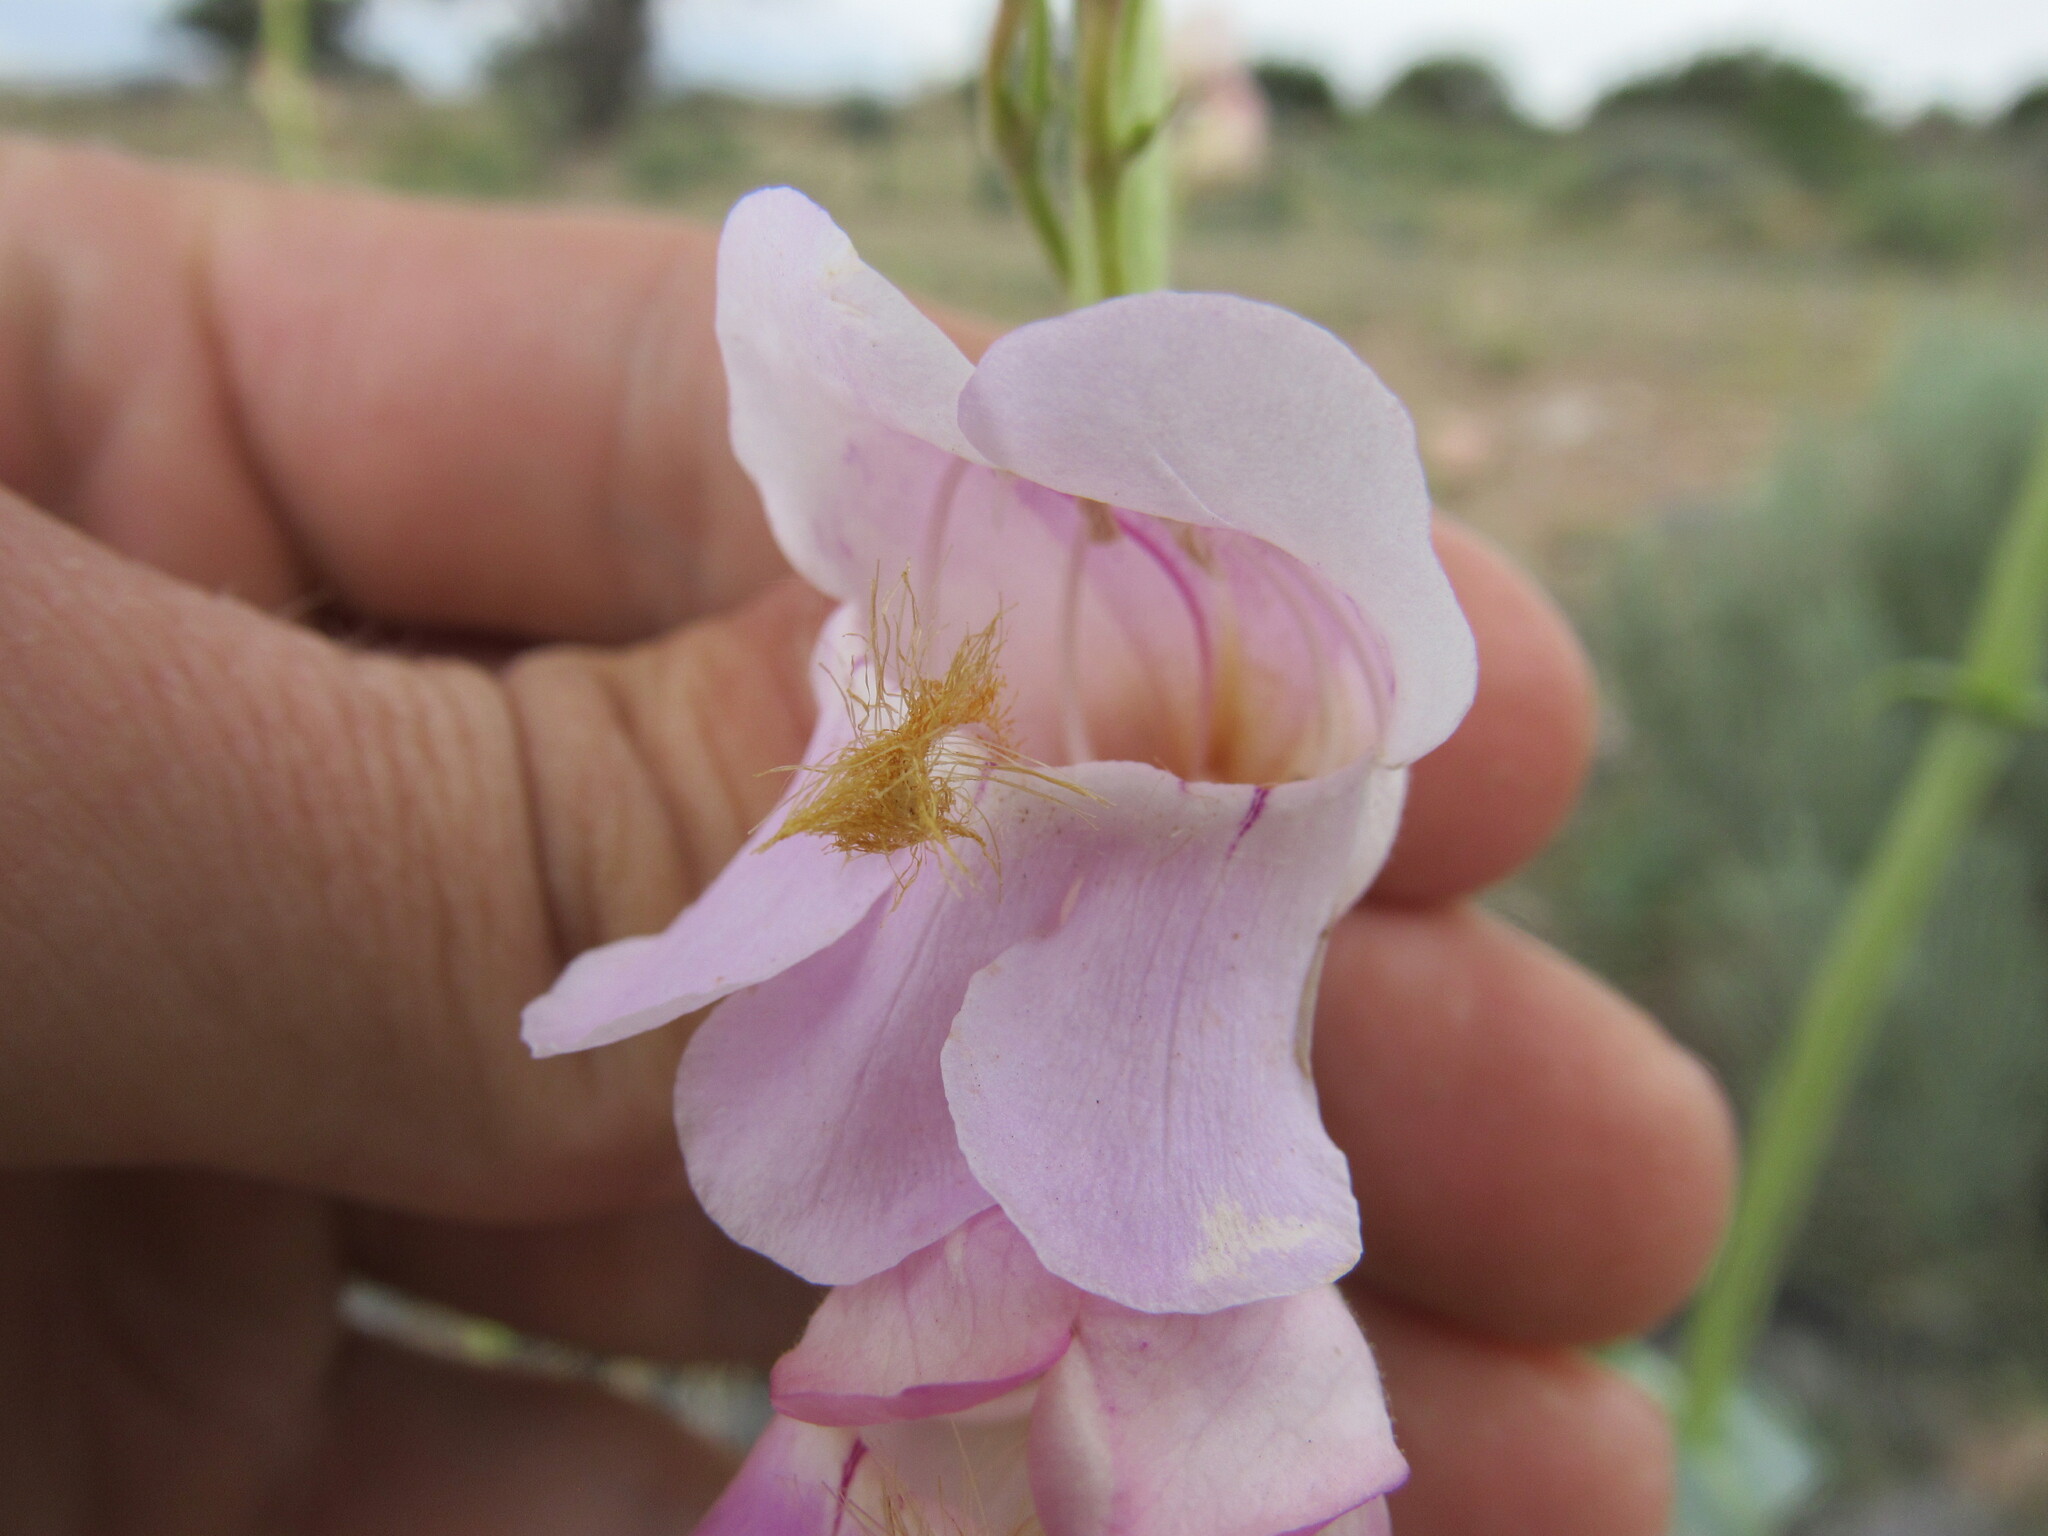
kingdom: Plantae
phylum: Tracheophyta
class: Magnoliopsida
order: Lamiales
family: Plantaginaceae
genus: Penstemon
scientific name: Penstemon palmeri
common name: Palmer penstemon
